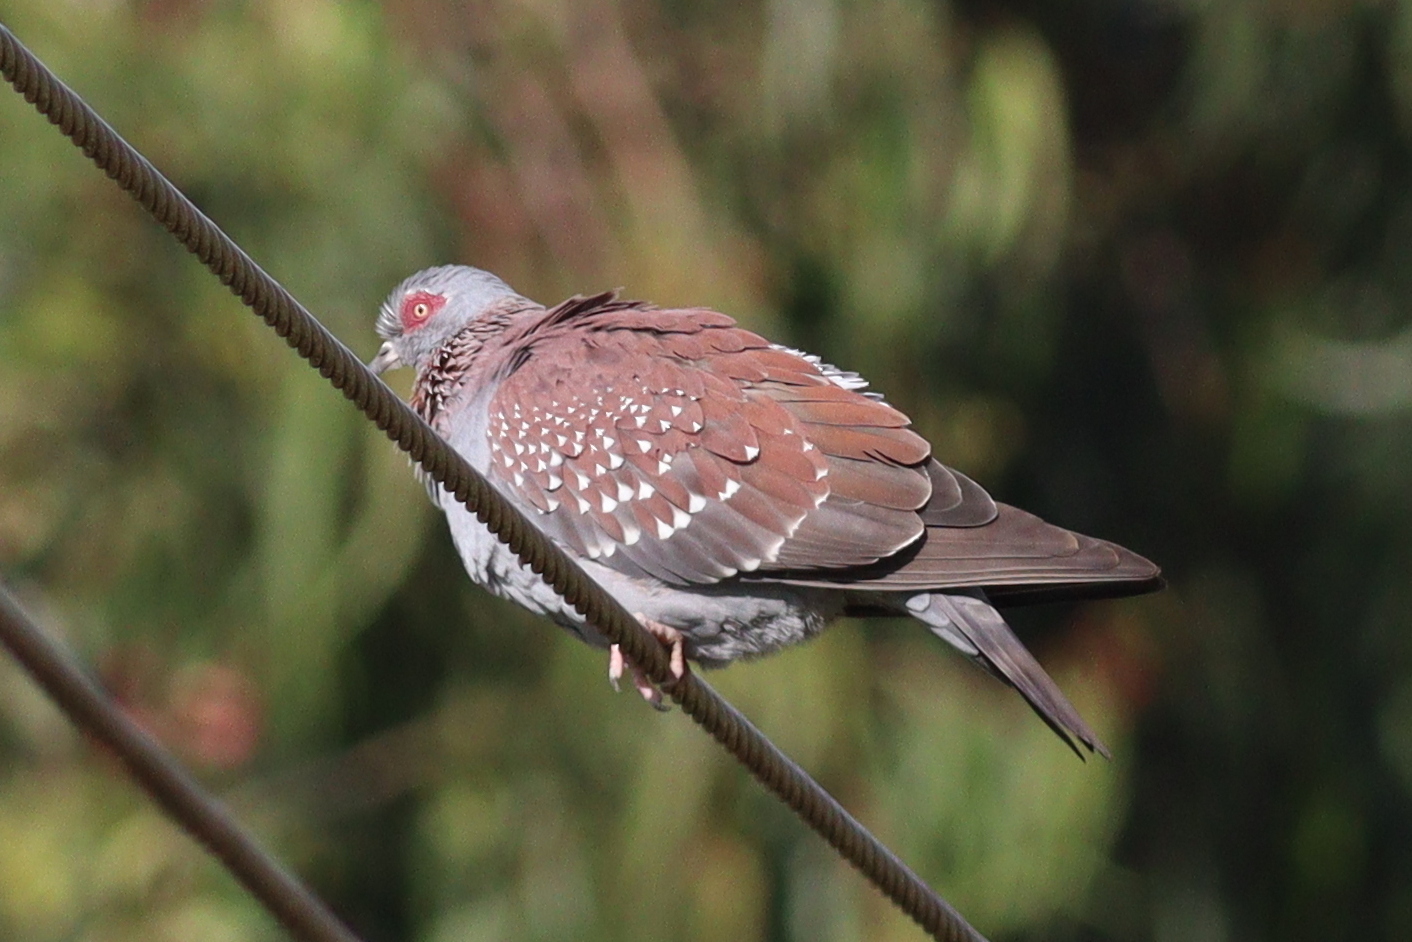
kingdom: Animalia
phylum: Chordata
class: Aves
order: Columbiformes
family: Columbidae
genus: Columba
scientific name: Columba guinea
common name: Speckled pigeon
